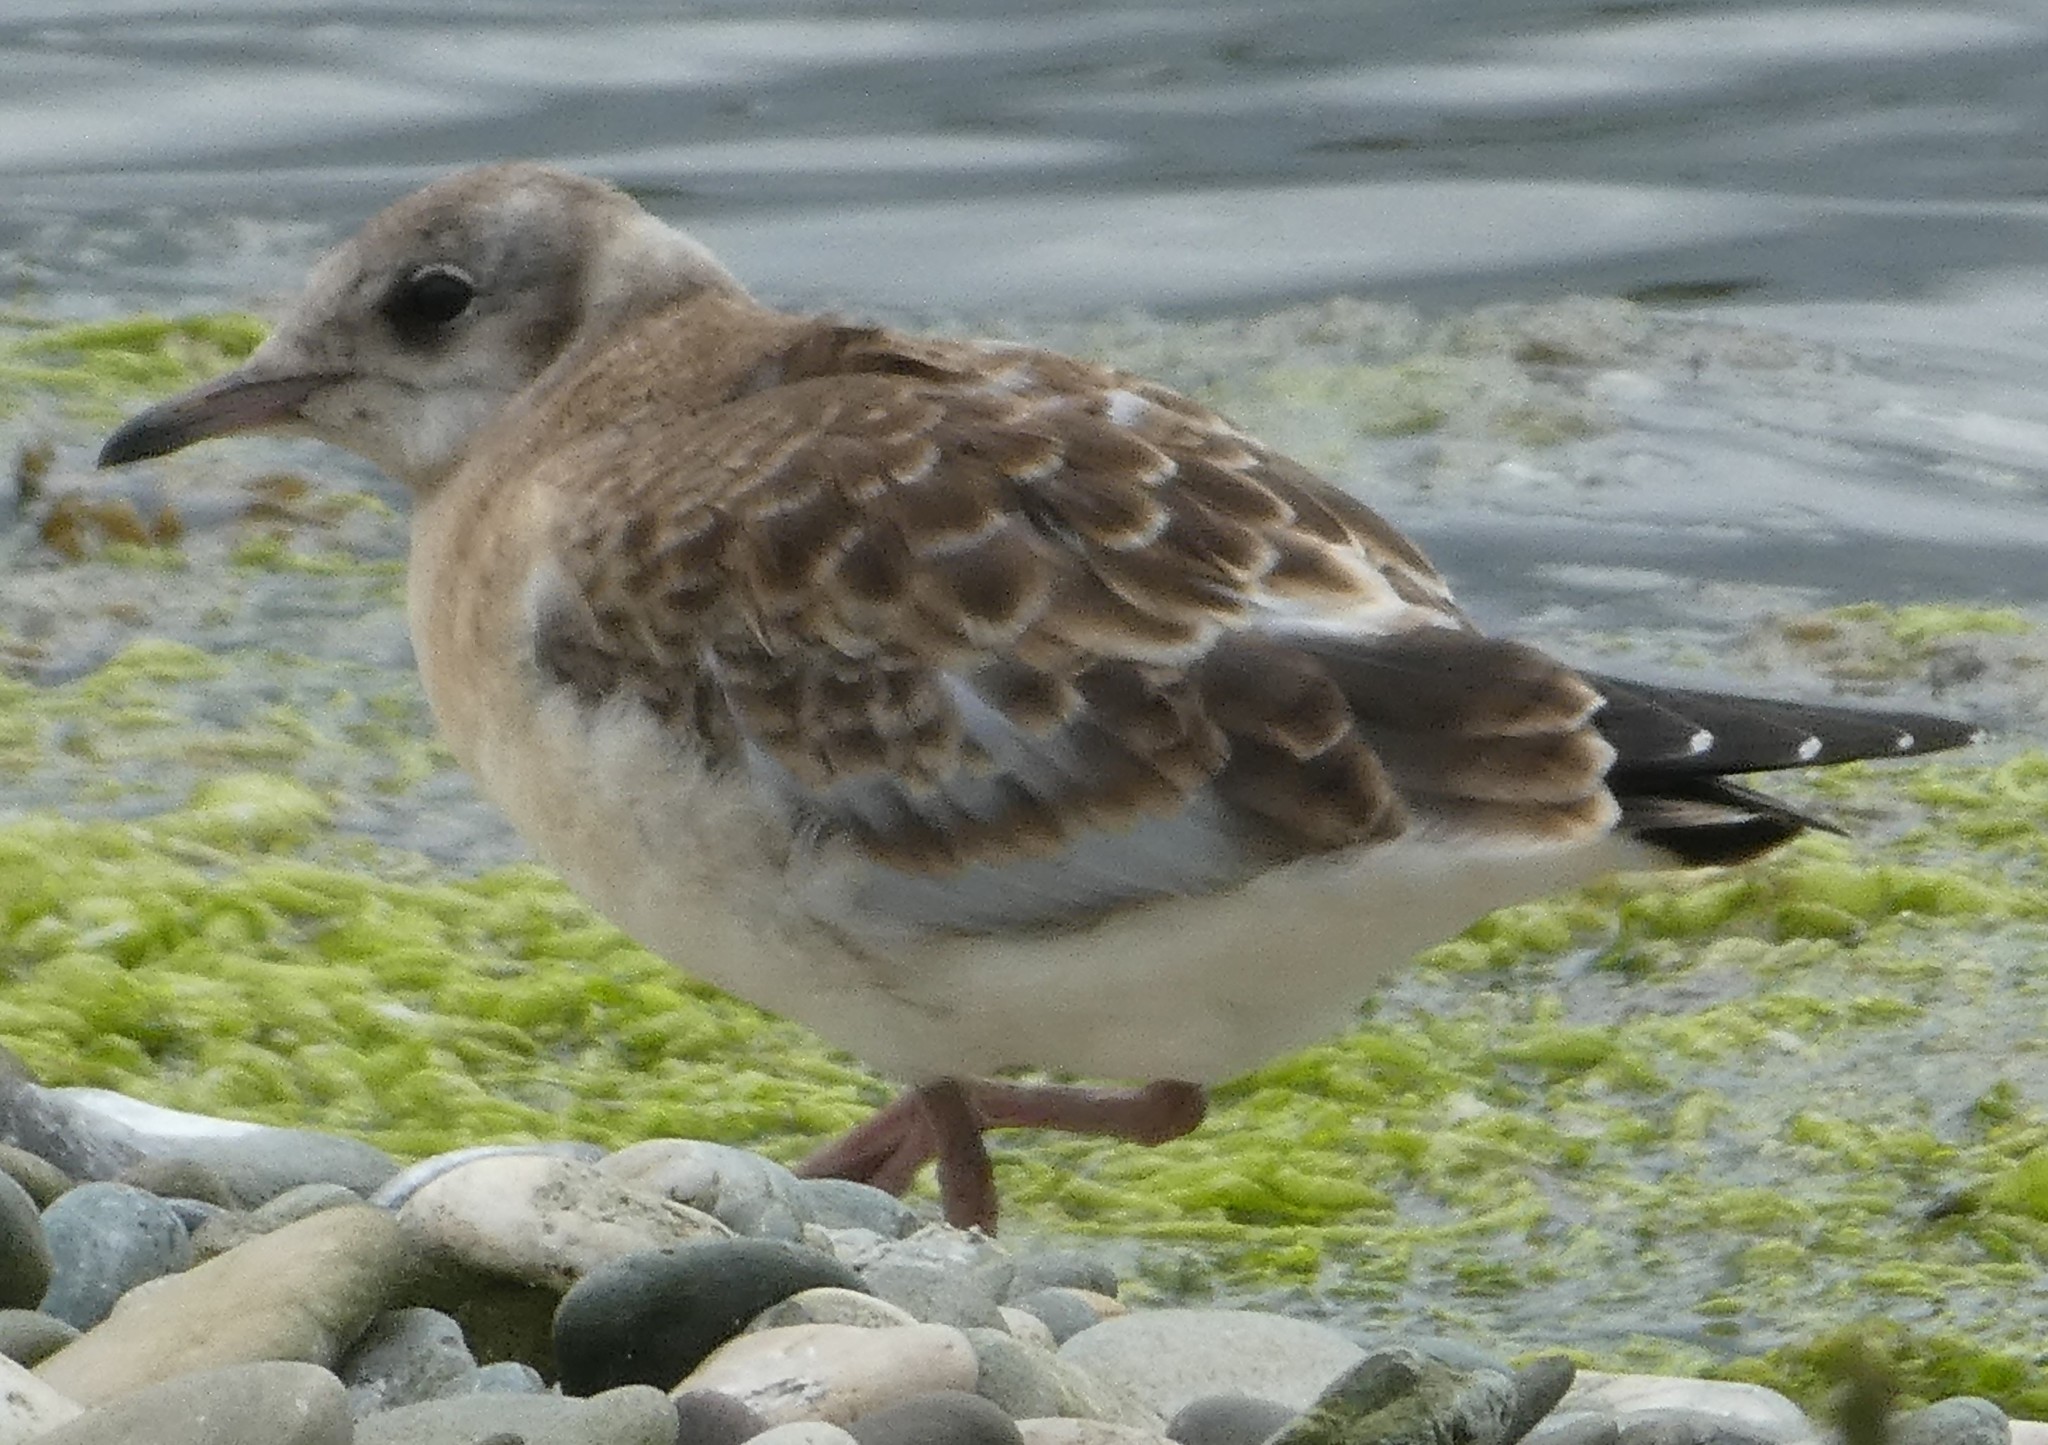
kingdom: Animalia
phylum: Chordata
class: Aves
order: Charadriiformes
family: Laridae
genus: Chroicocephalus
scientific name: Chroicocephalus ridibundus
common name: Black-headed gull
